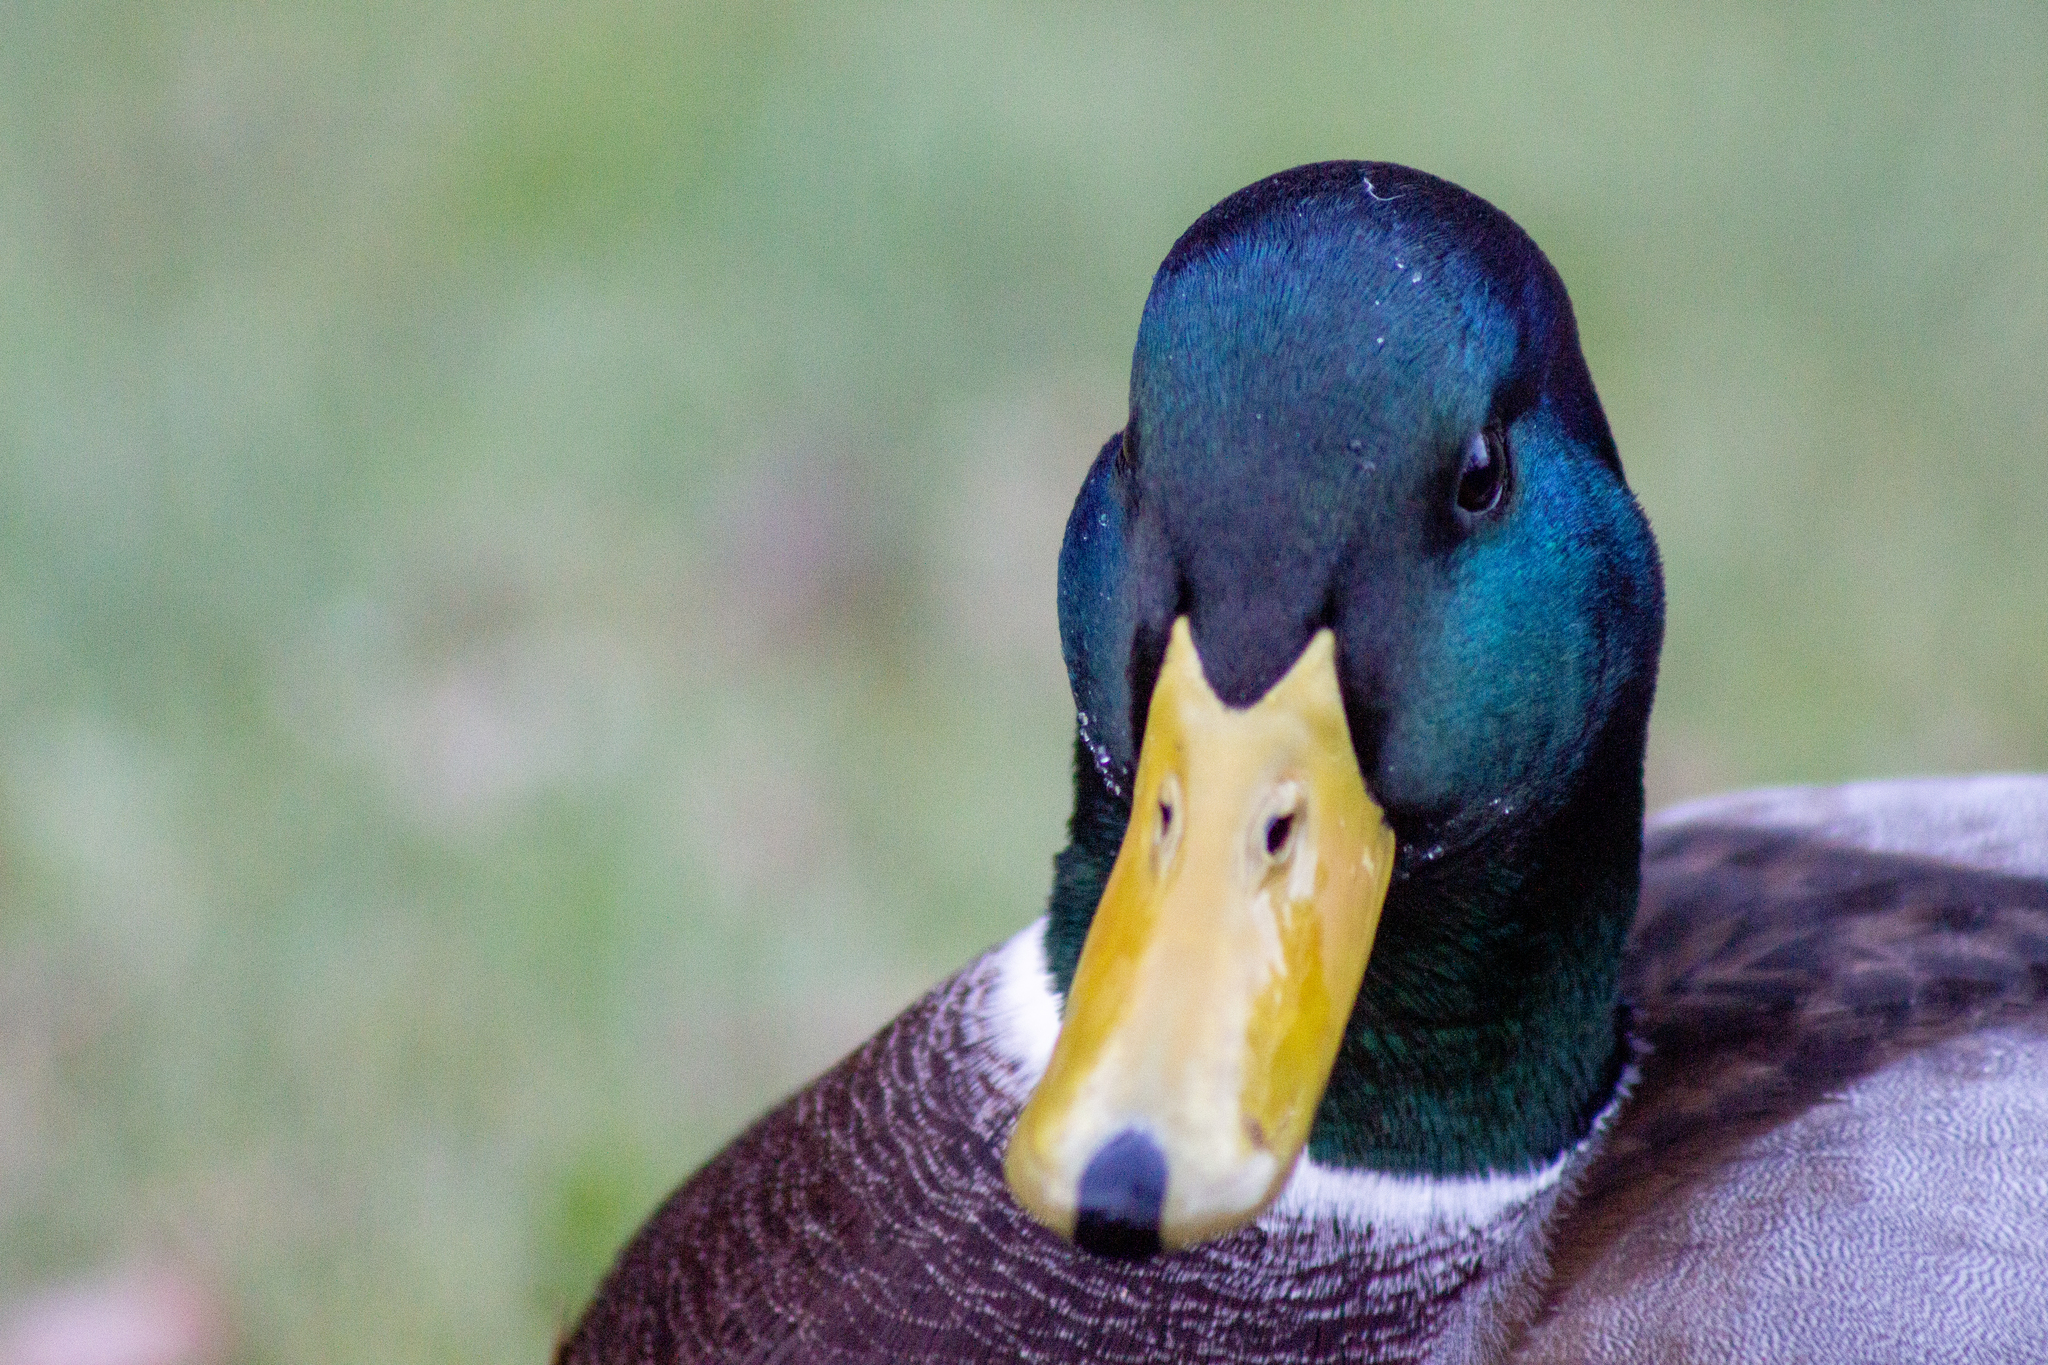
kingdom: Animalia
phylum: Chordata
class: Aves
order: Anseriformes
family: Anatidae
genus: Anas
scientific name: Anas platyrhynchos
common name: Mallard
